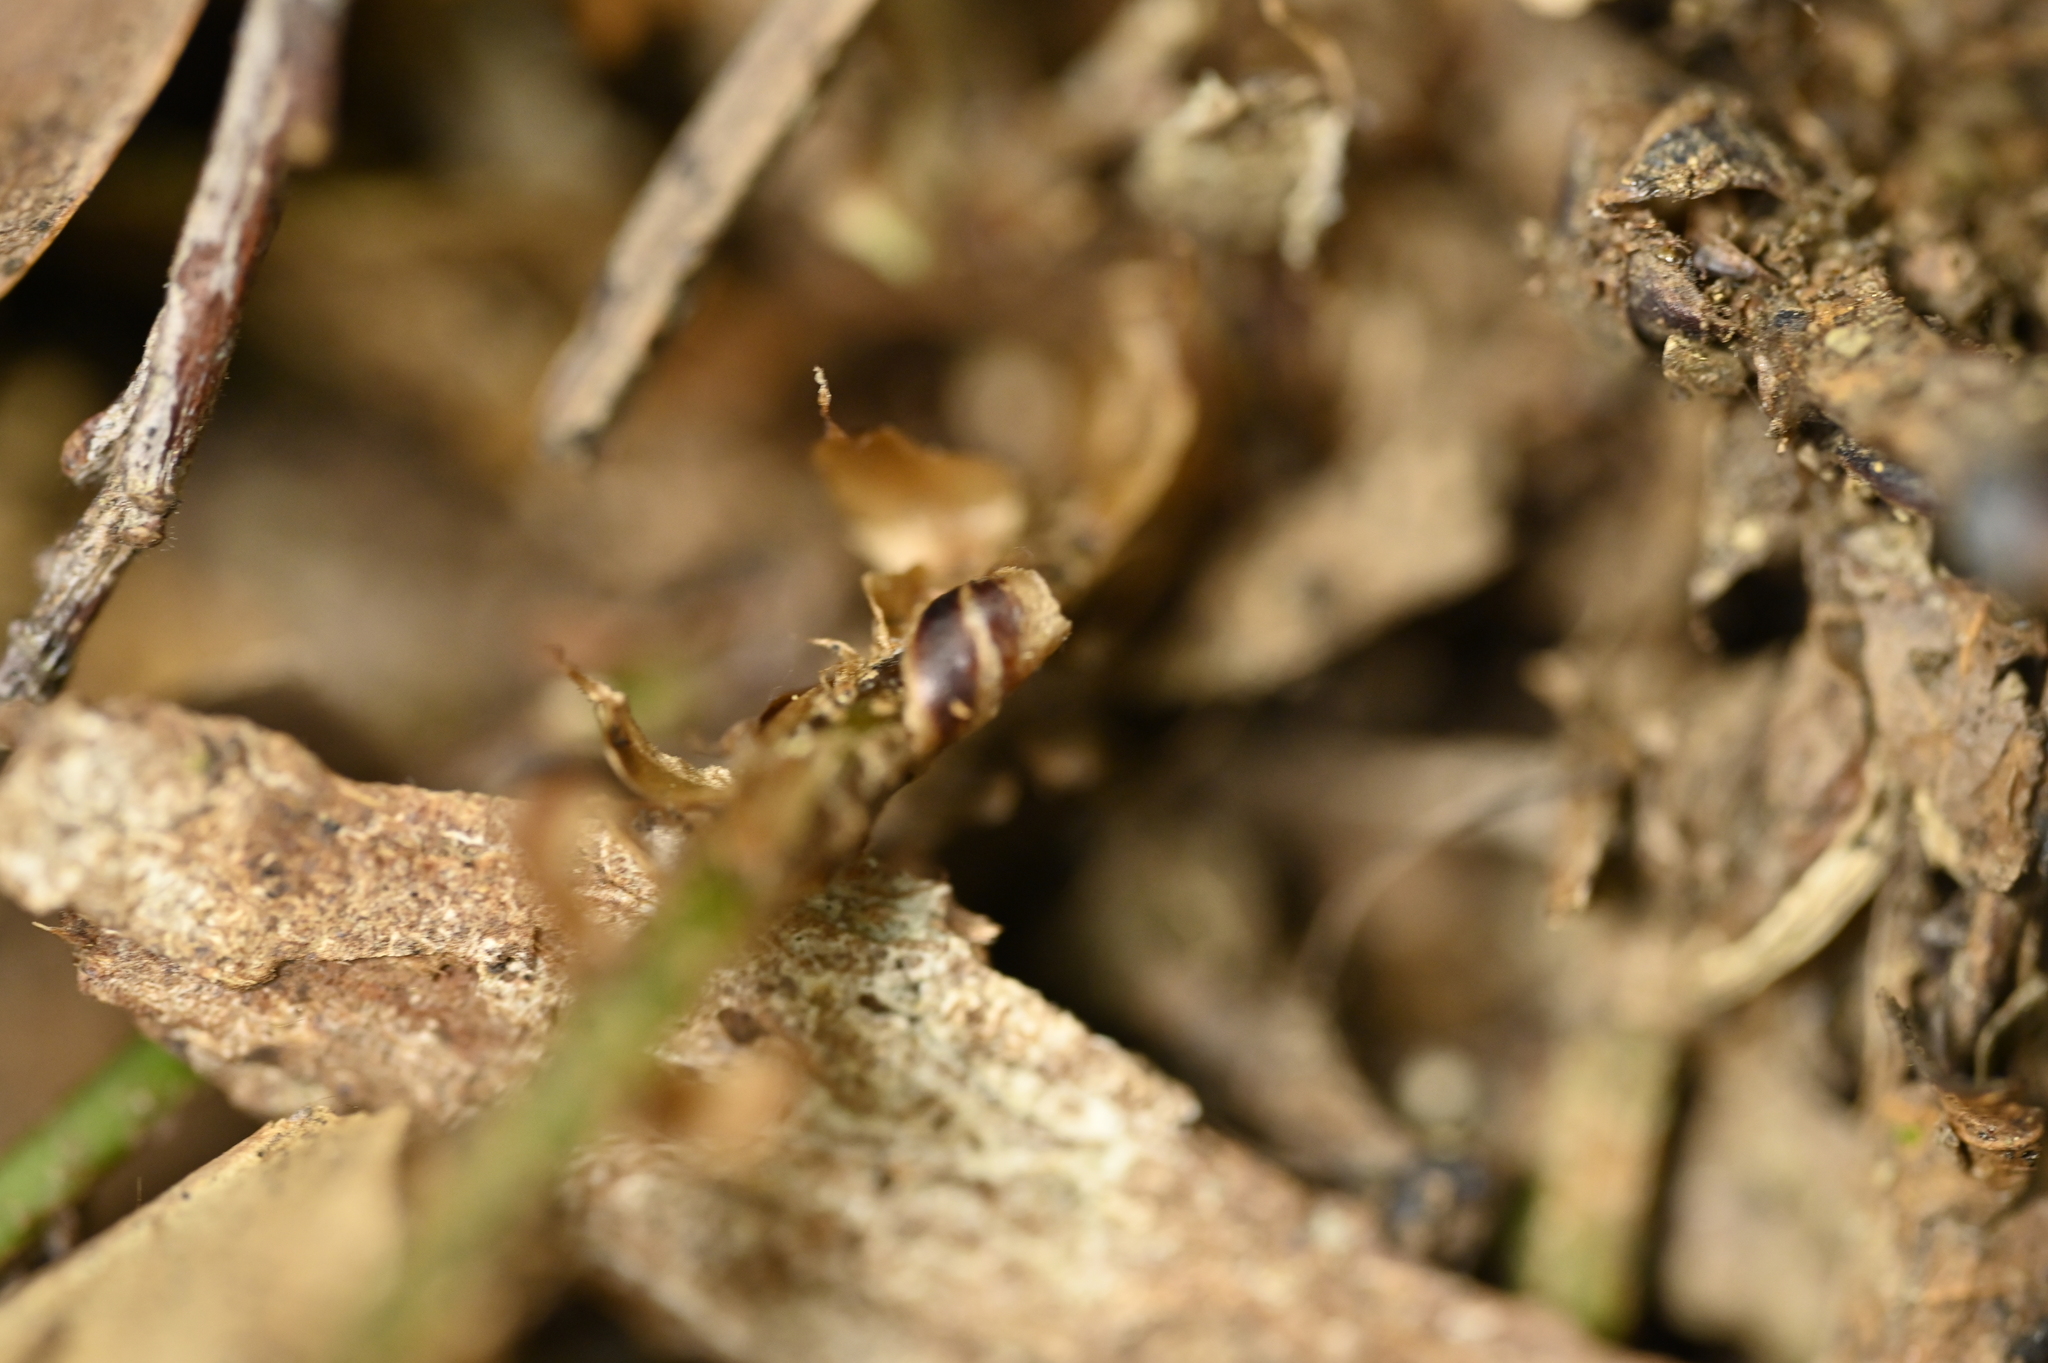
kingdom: Plantae
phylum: Tracheophyta
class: Polypodiopsida
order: Polypodiales
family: Dryopteridaceae
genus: Polystichum
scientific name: Polystichum prionolepis
